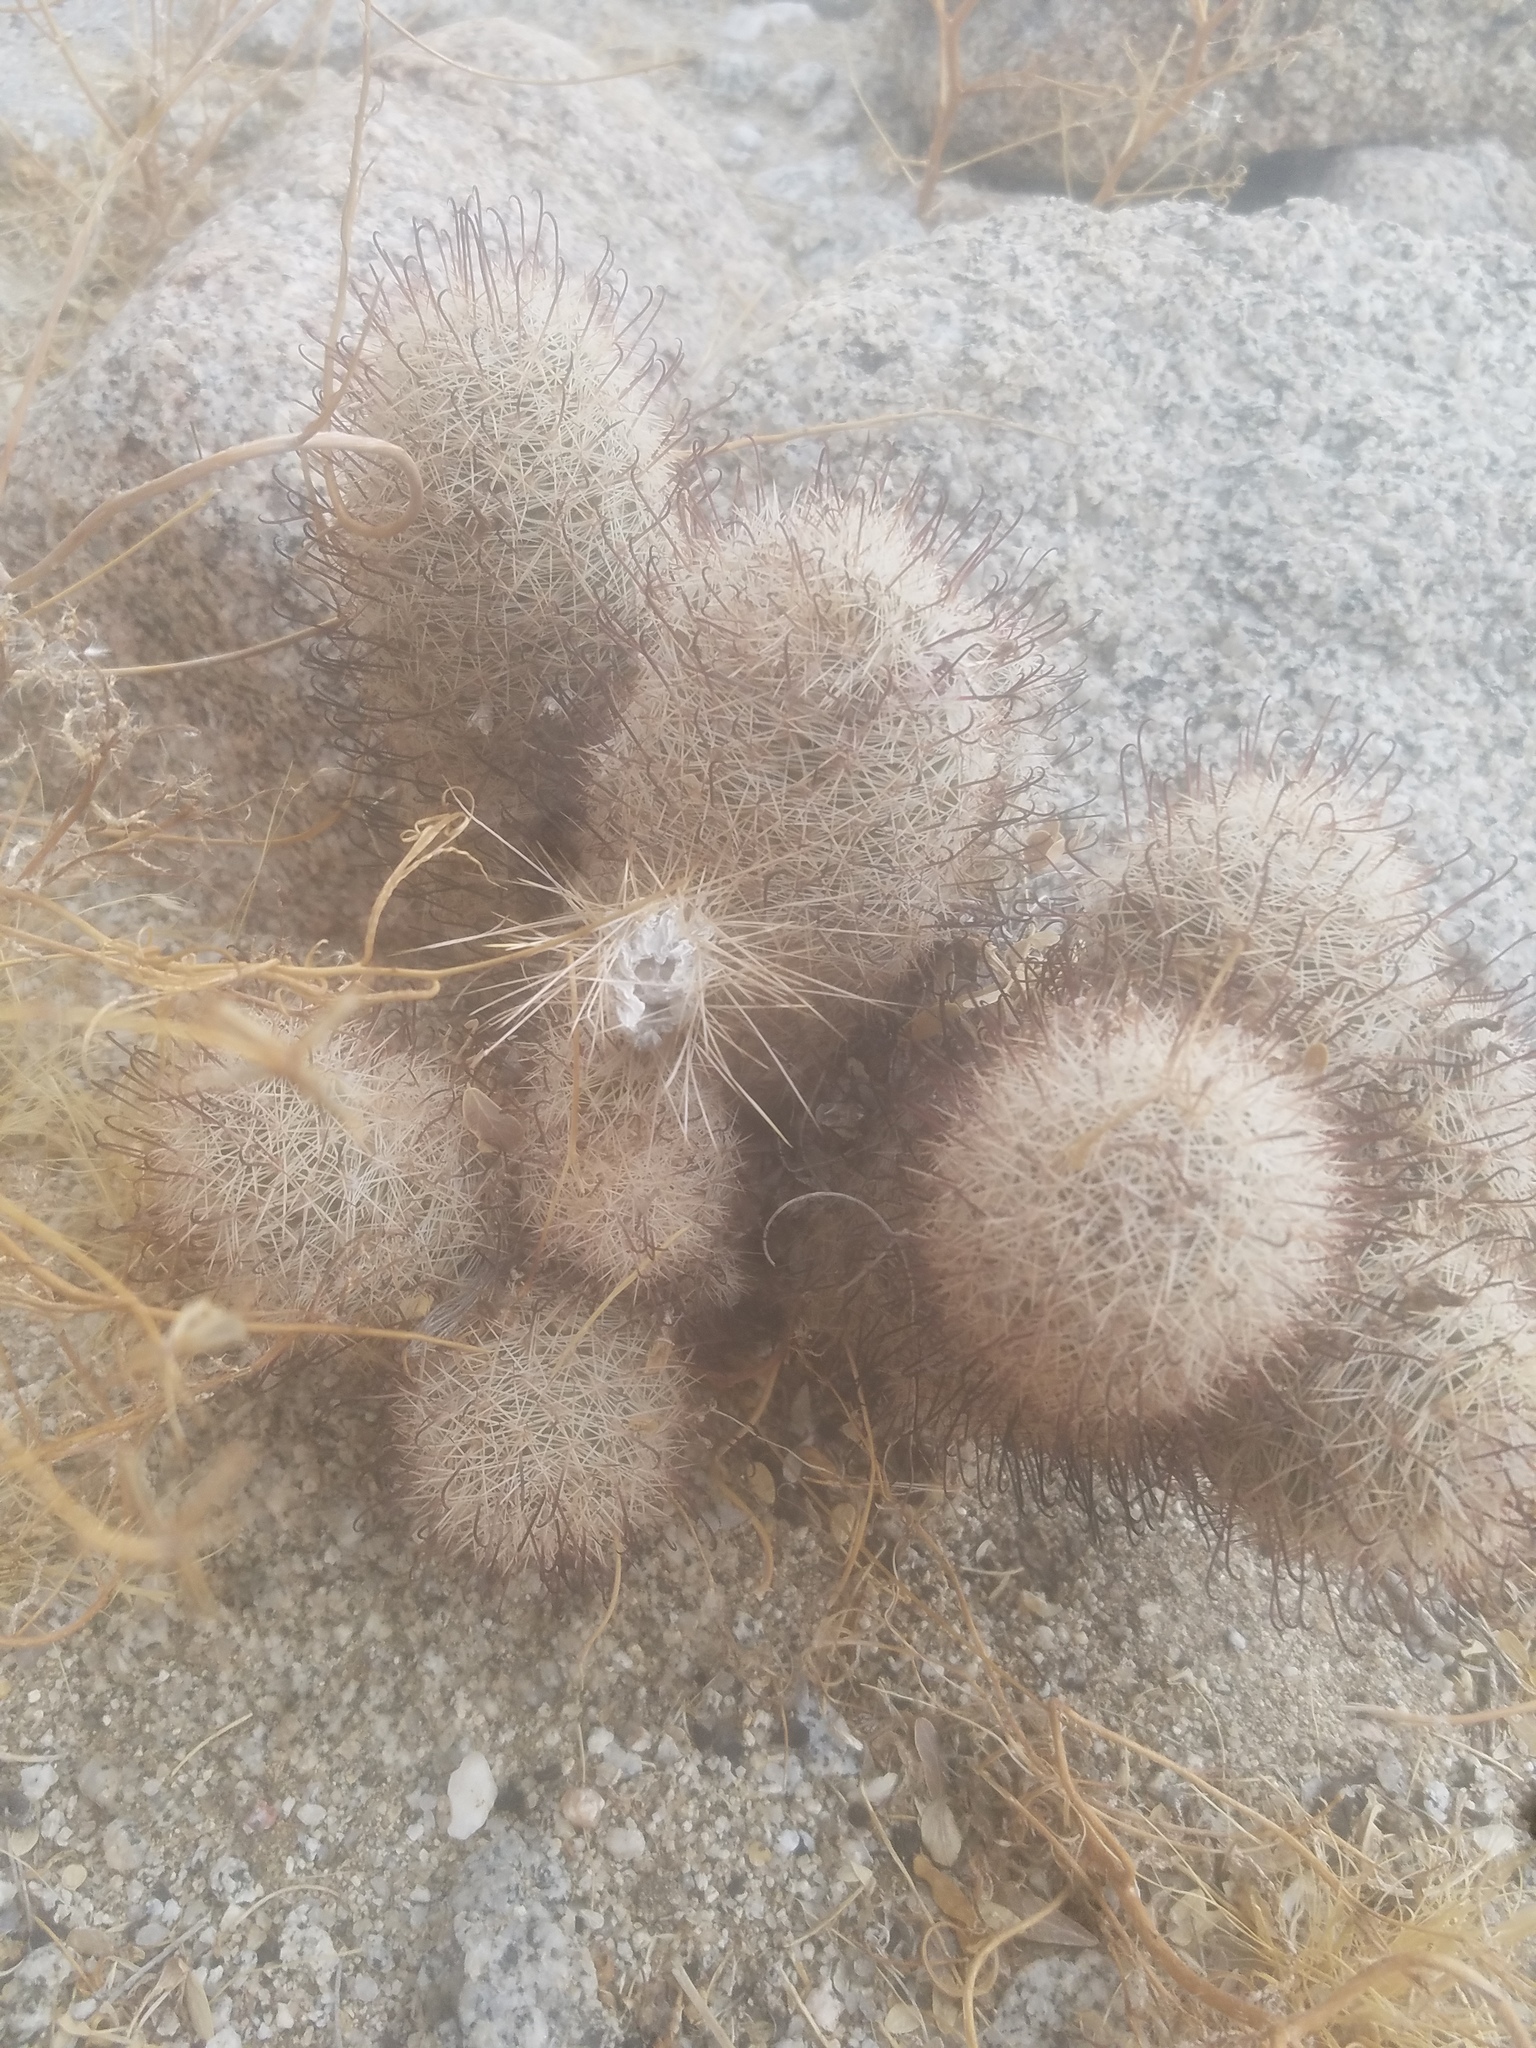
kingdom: Plantae
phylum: Tracheophyta
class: Magnoliopsida
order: Caryophyllales
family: Cactaceae
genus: Cochemiea
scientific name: Cochemiea dioica
